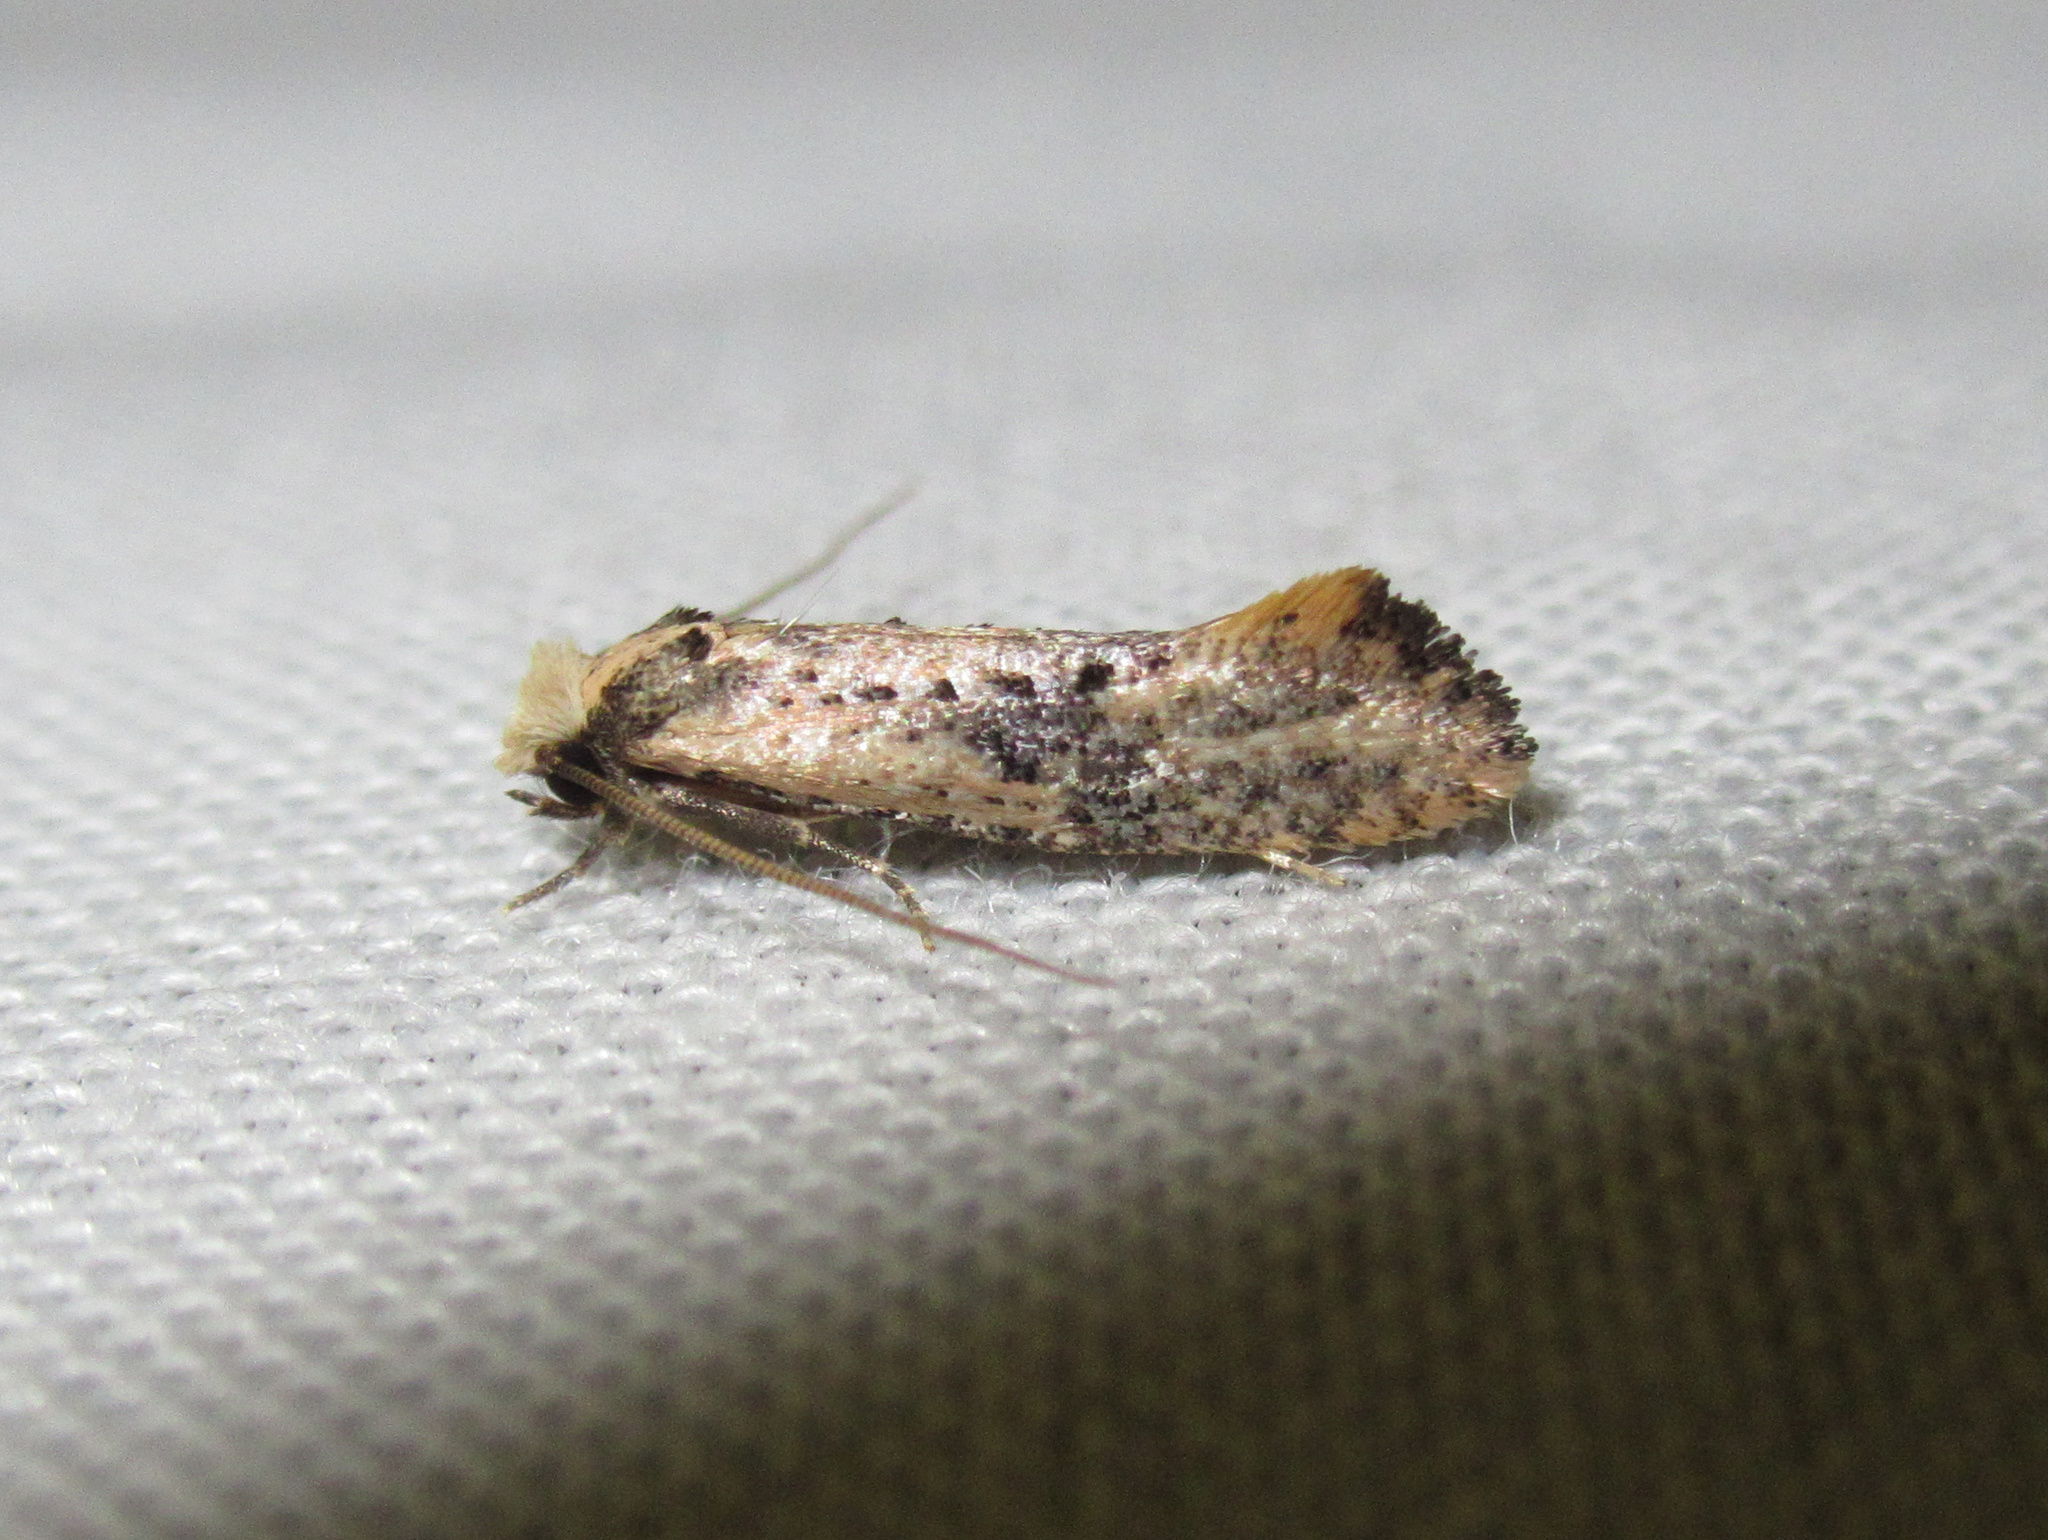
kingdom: Animalia
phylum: Arthropoda
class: Insecta
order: Lepidoptera
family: Tineidae
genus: Monopis
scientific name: Monopis argillacea
